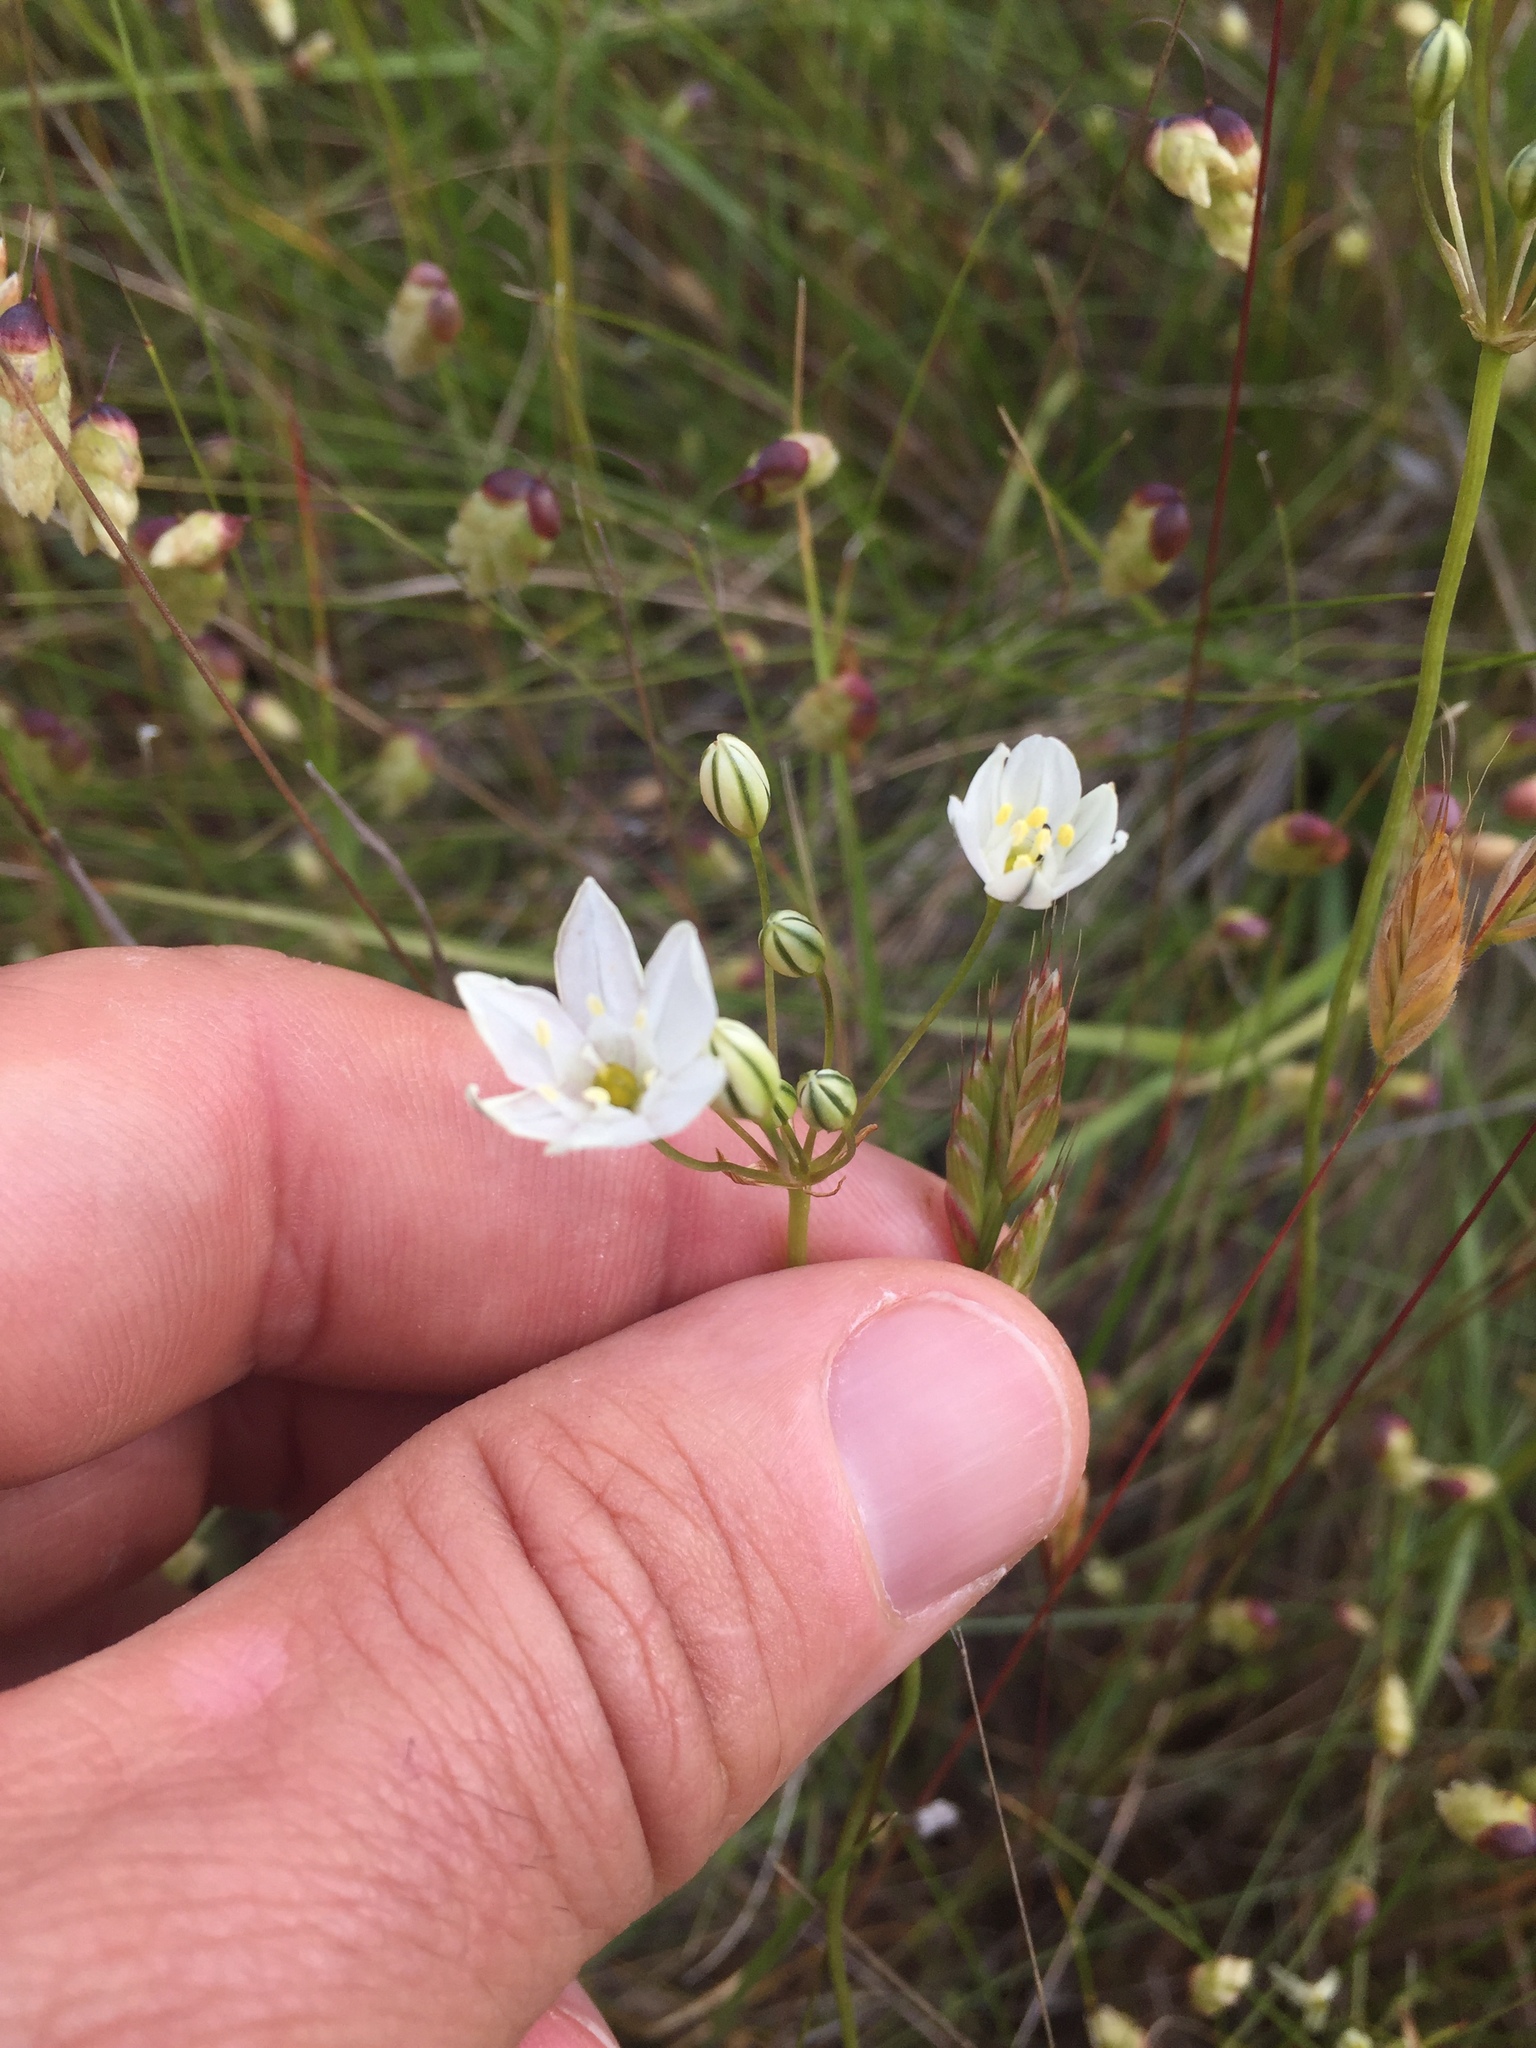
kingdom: Plantae
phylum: Tracheophyta
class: Liliopsida
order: Asparagales
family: Asparagaceae
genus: Triteleia
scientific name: Triteleia hyacinthina
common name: White brodiaea
